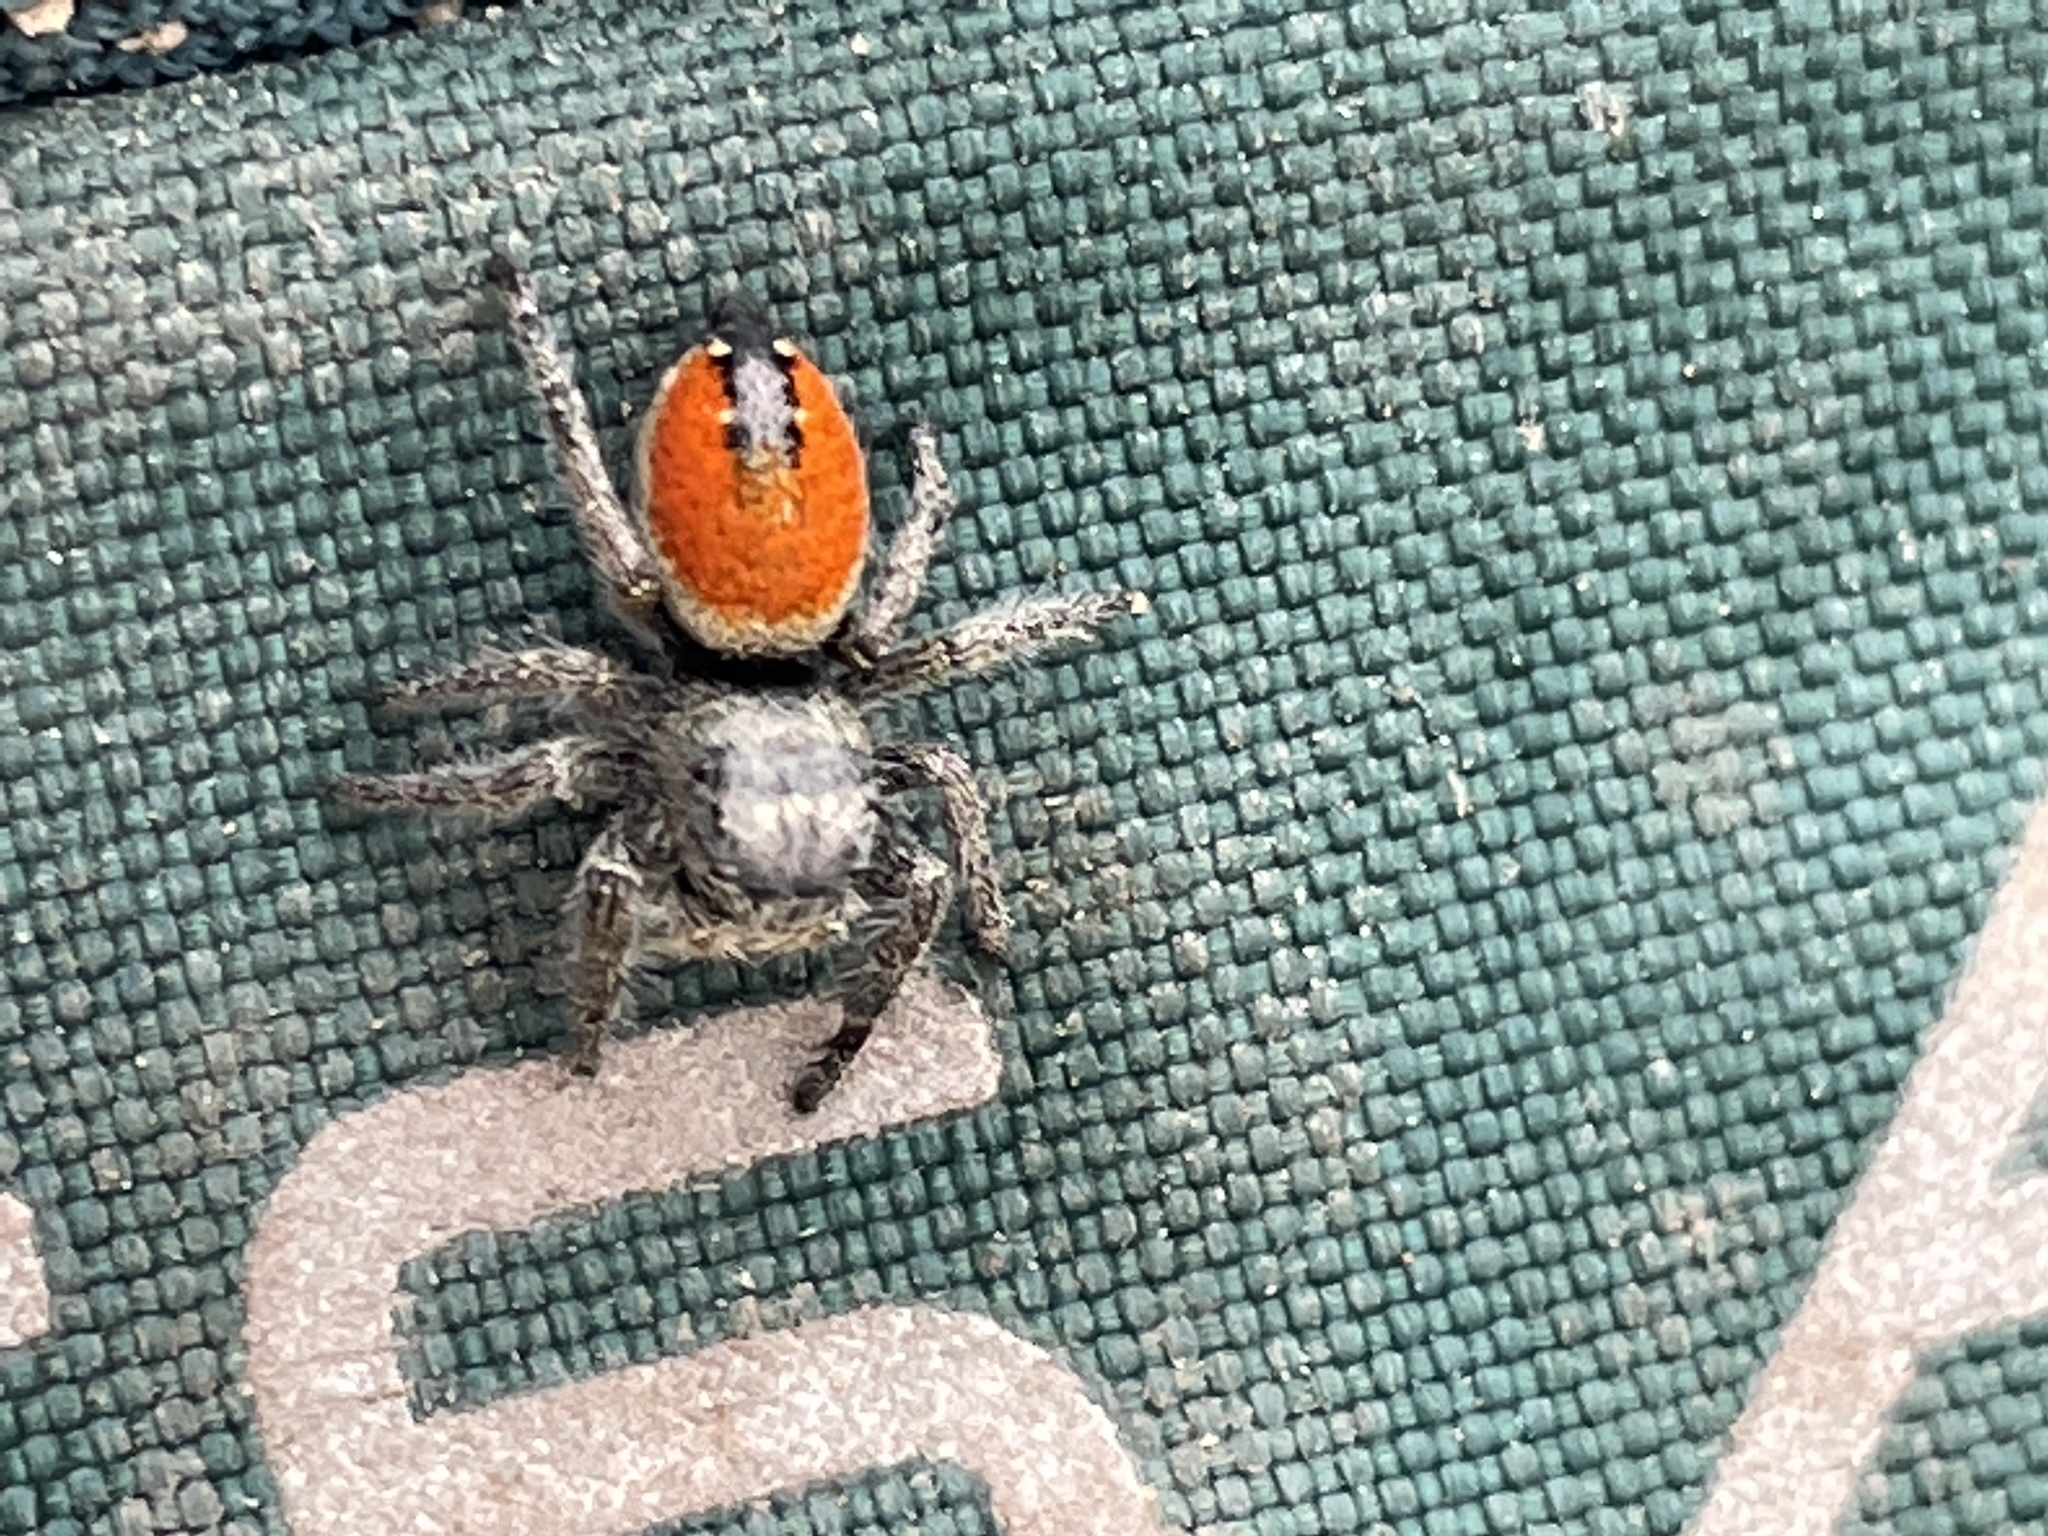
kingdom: Animalia
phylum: Arthropoda
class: Arachnida
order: Araneae
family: Salticidae
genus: Phidippus
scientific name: Phidippus ardens
